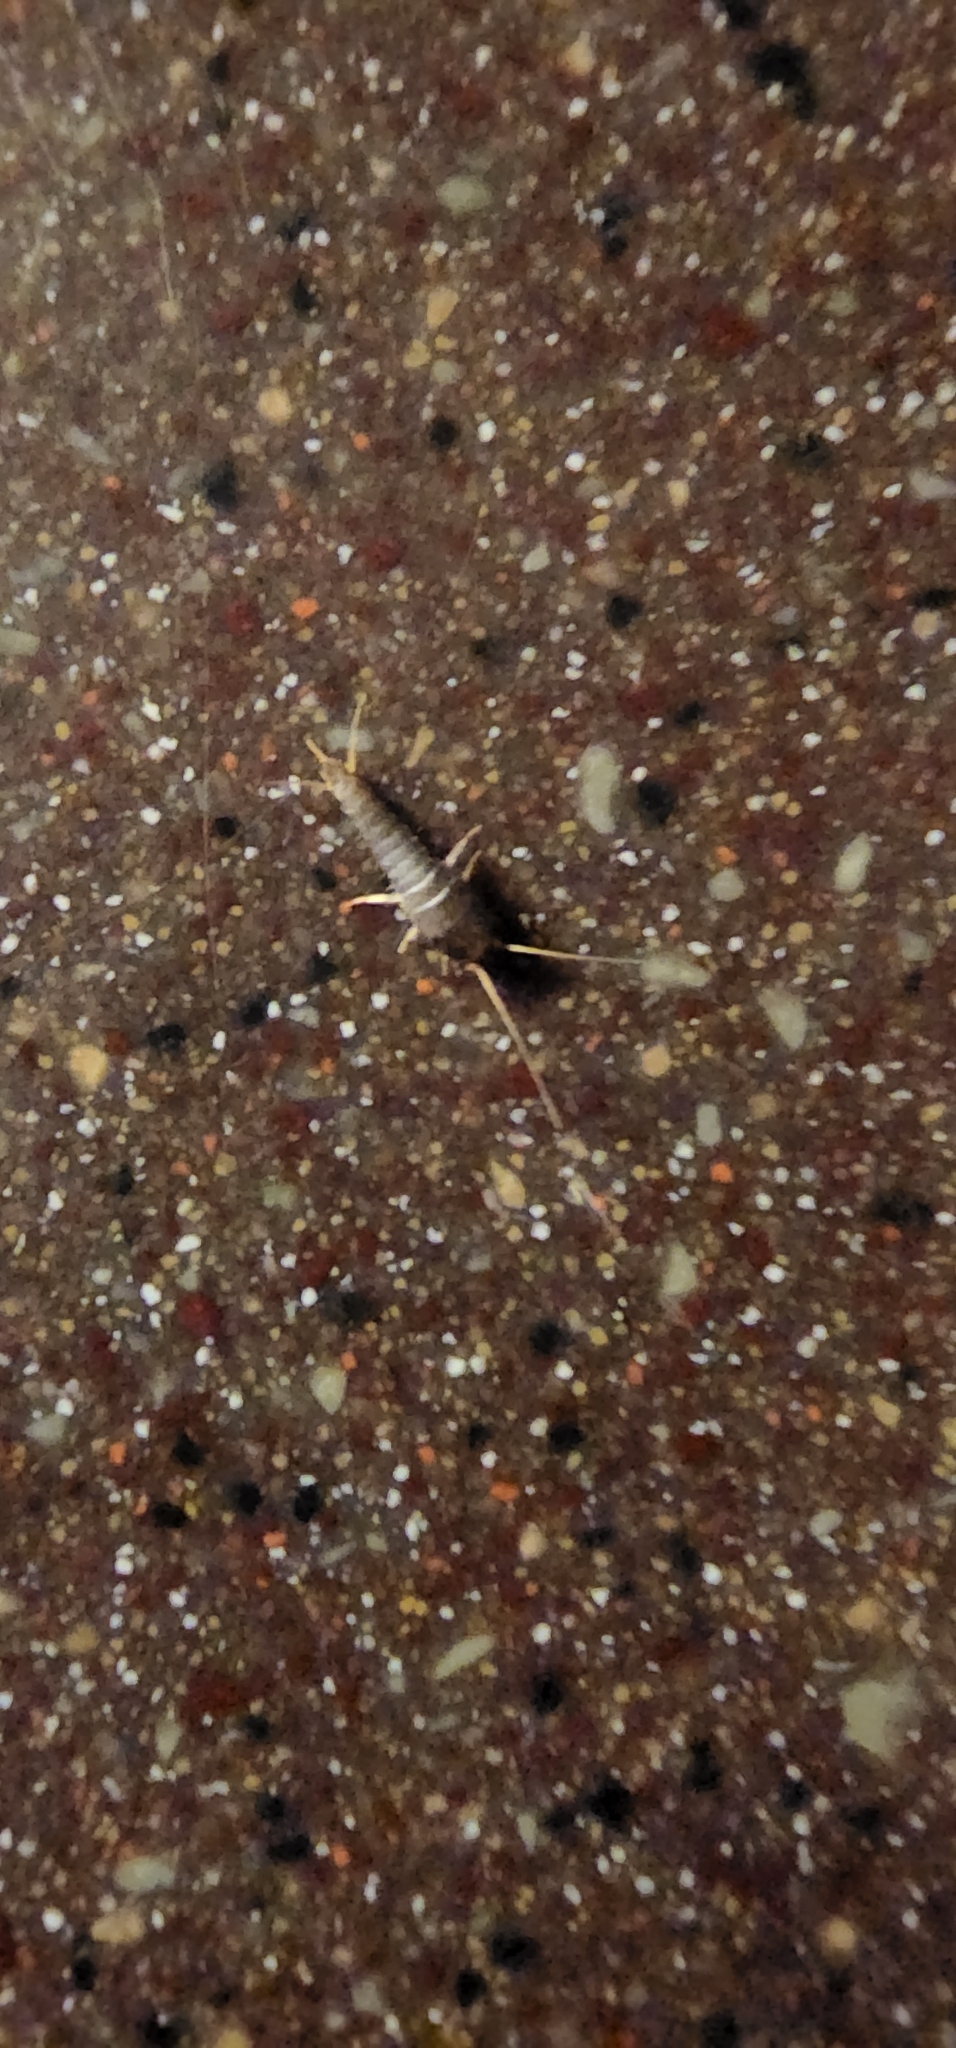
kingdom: Animalia
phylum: Arthropoda
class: Insecta
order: Zygentoma
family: Lepismatidae
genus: Lepisma
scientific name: Lepisma saccharinum
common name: Silverfish
